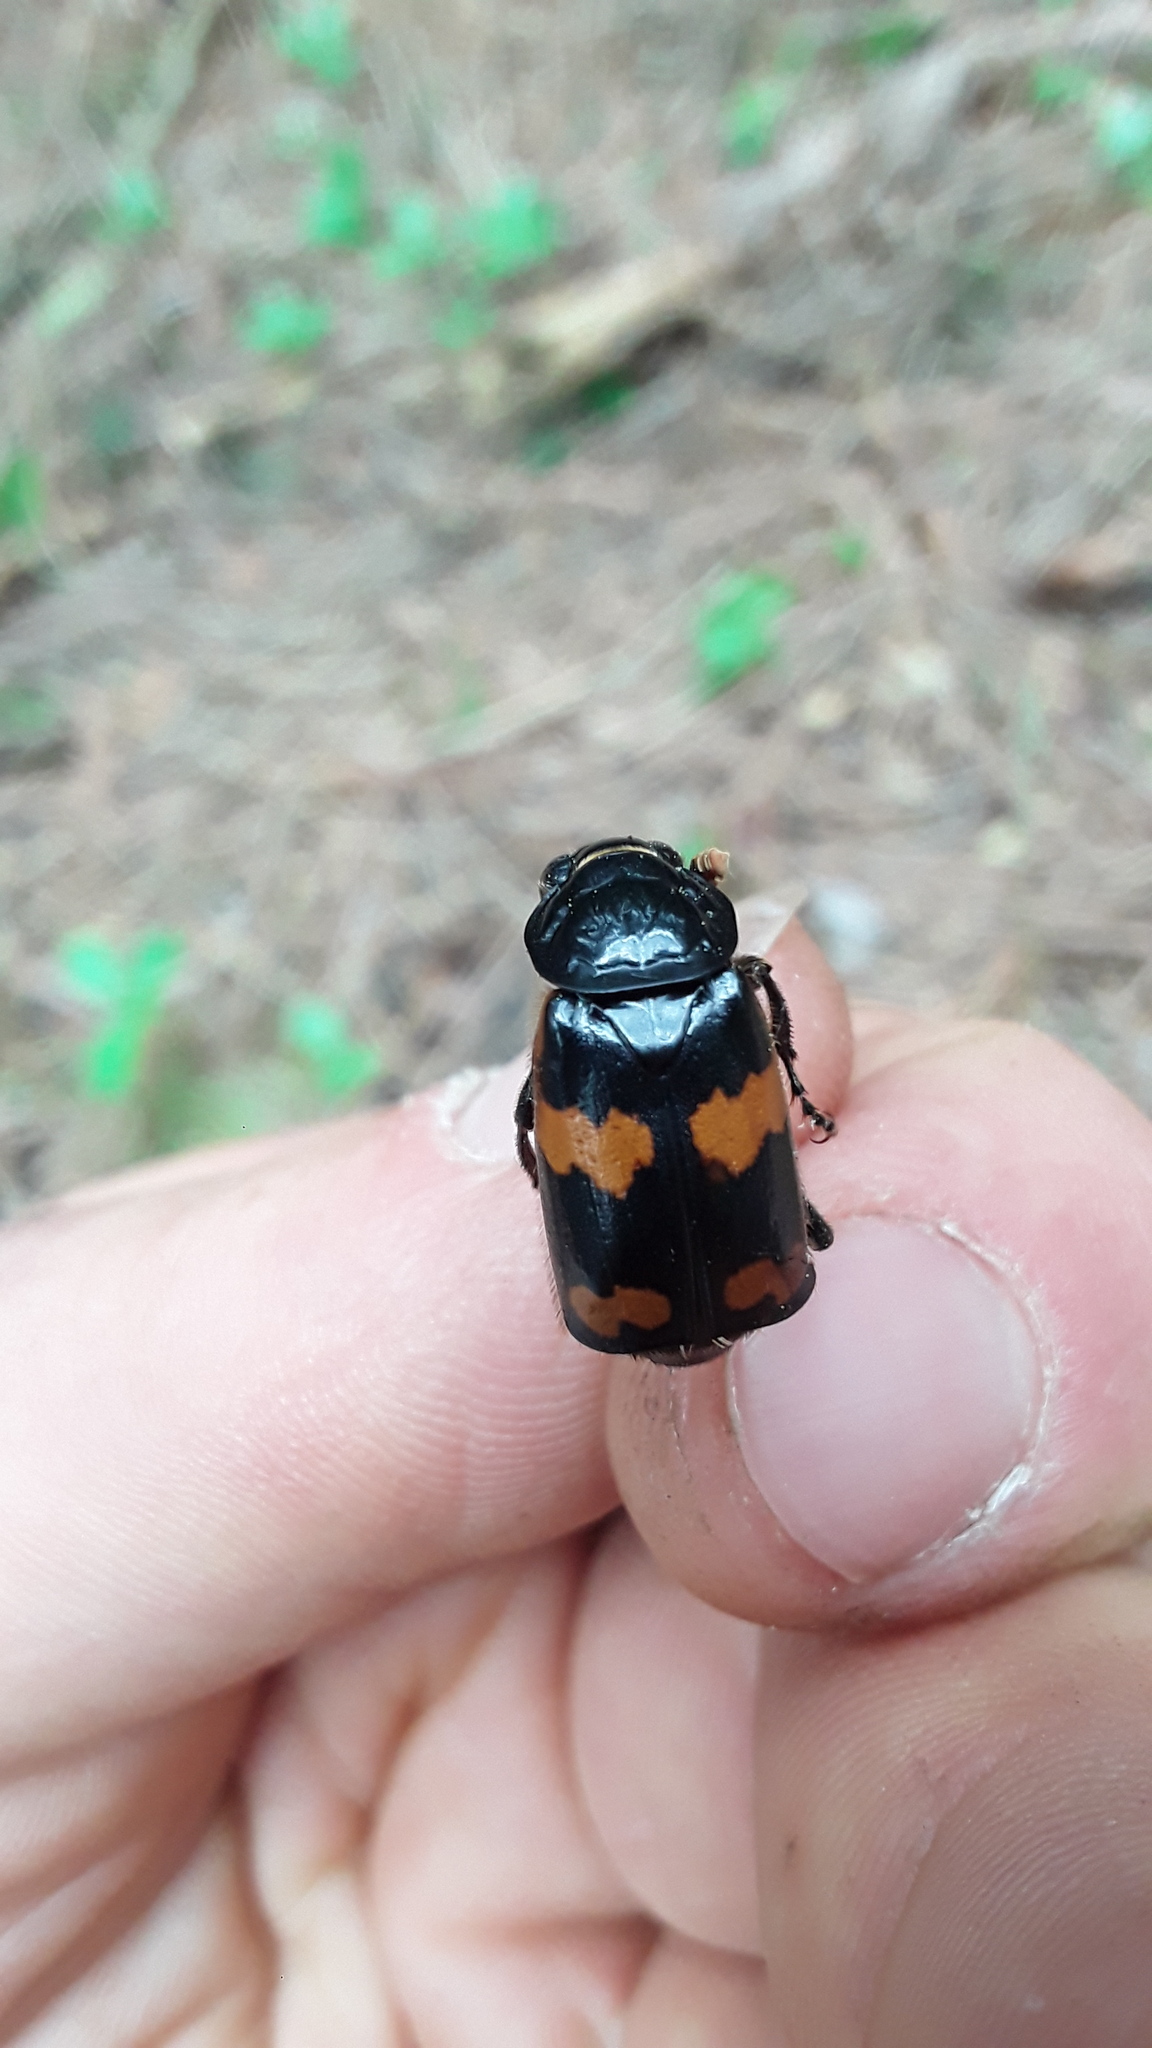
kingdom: Animalia
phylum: Arthropoda
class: Insecta
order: Coleoptera
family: Staphylinidae
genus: Nicrophorus
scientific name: Nicrophorus sayi
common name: Say's burying beetle
